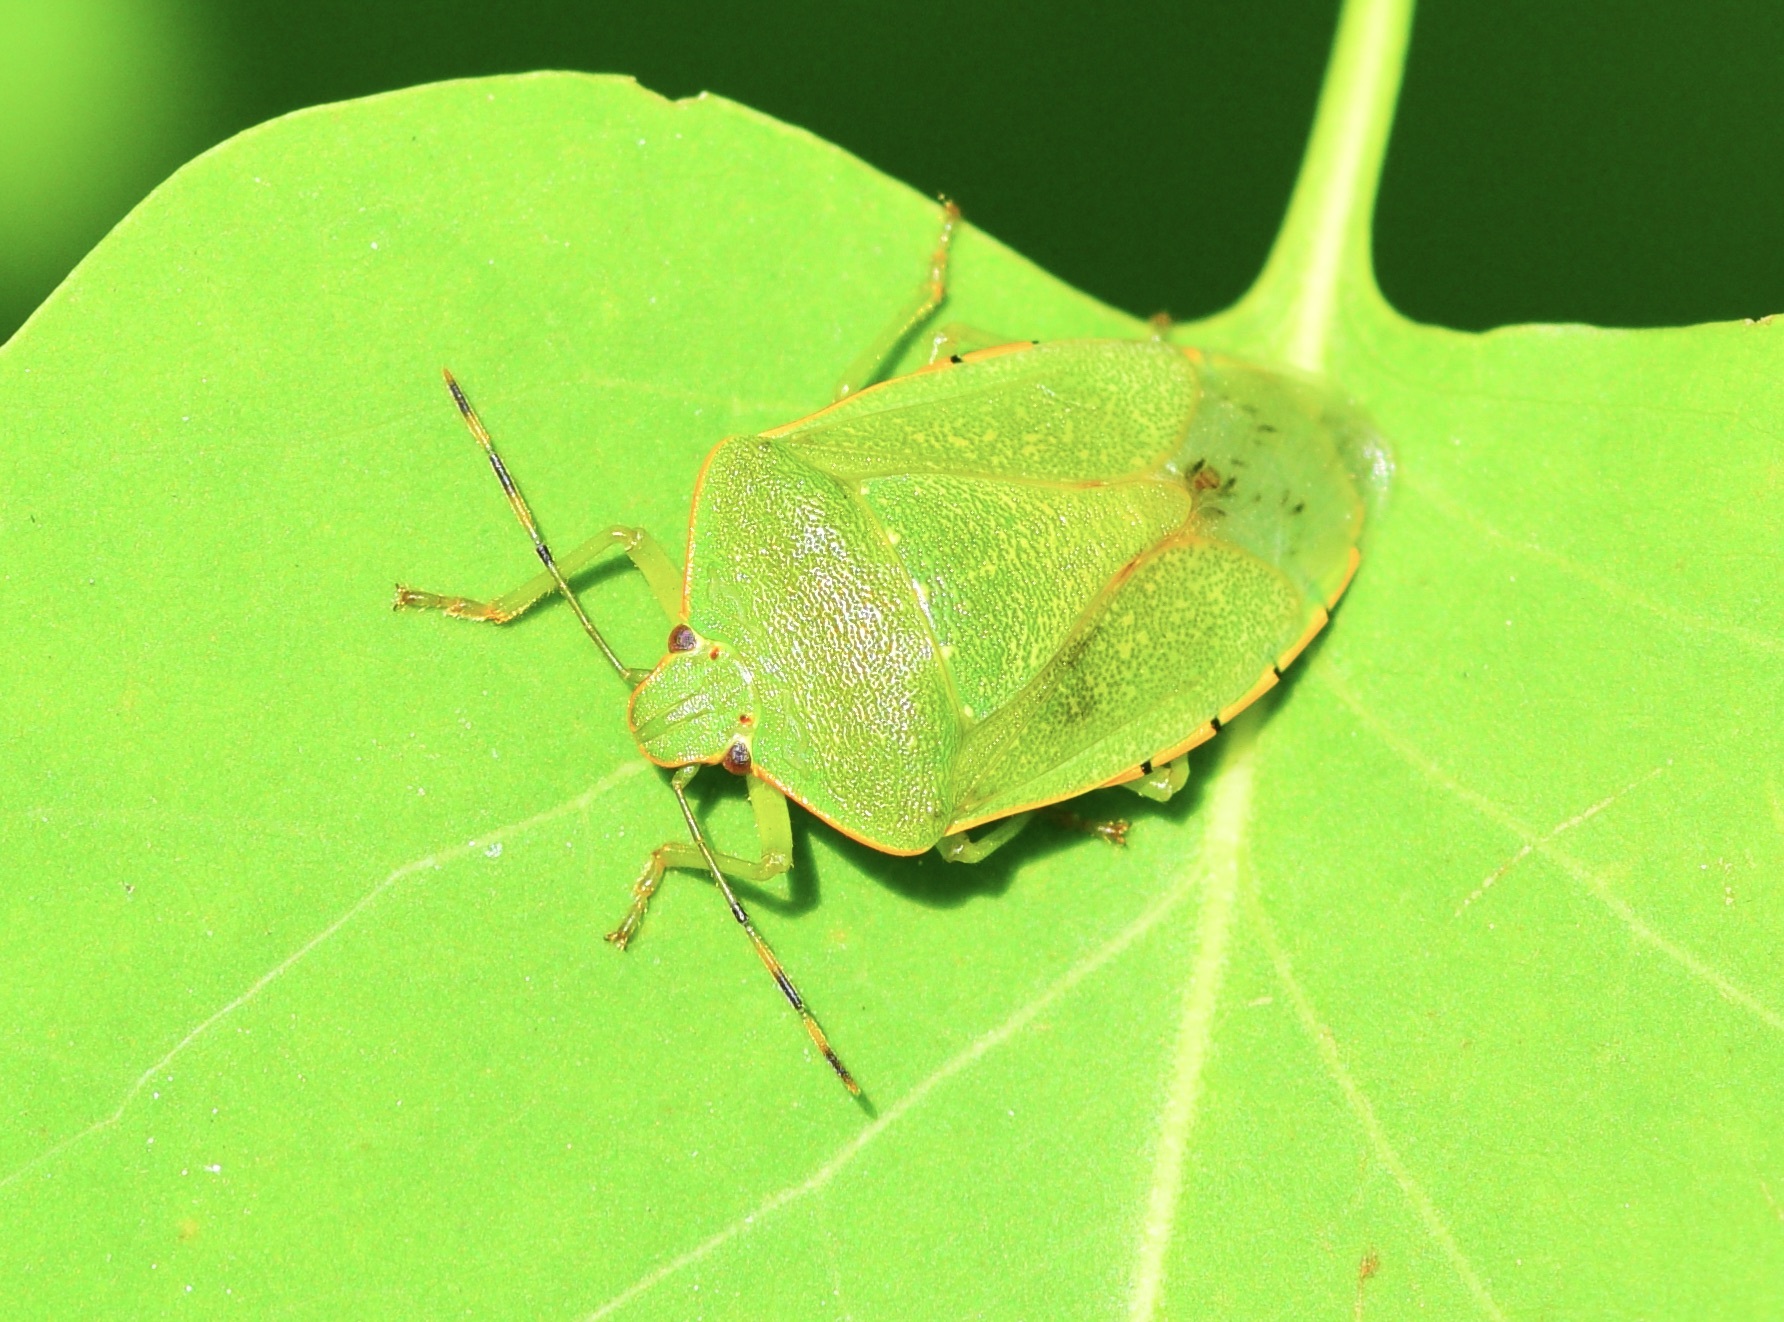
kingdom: Animalia
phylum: Arthropoda
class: Insecta
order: Hemiptera
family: Pentatomidae
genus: Chinavia
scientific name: Chinavia hilaris
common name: Green stink bug
